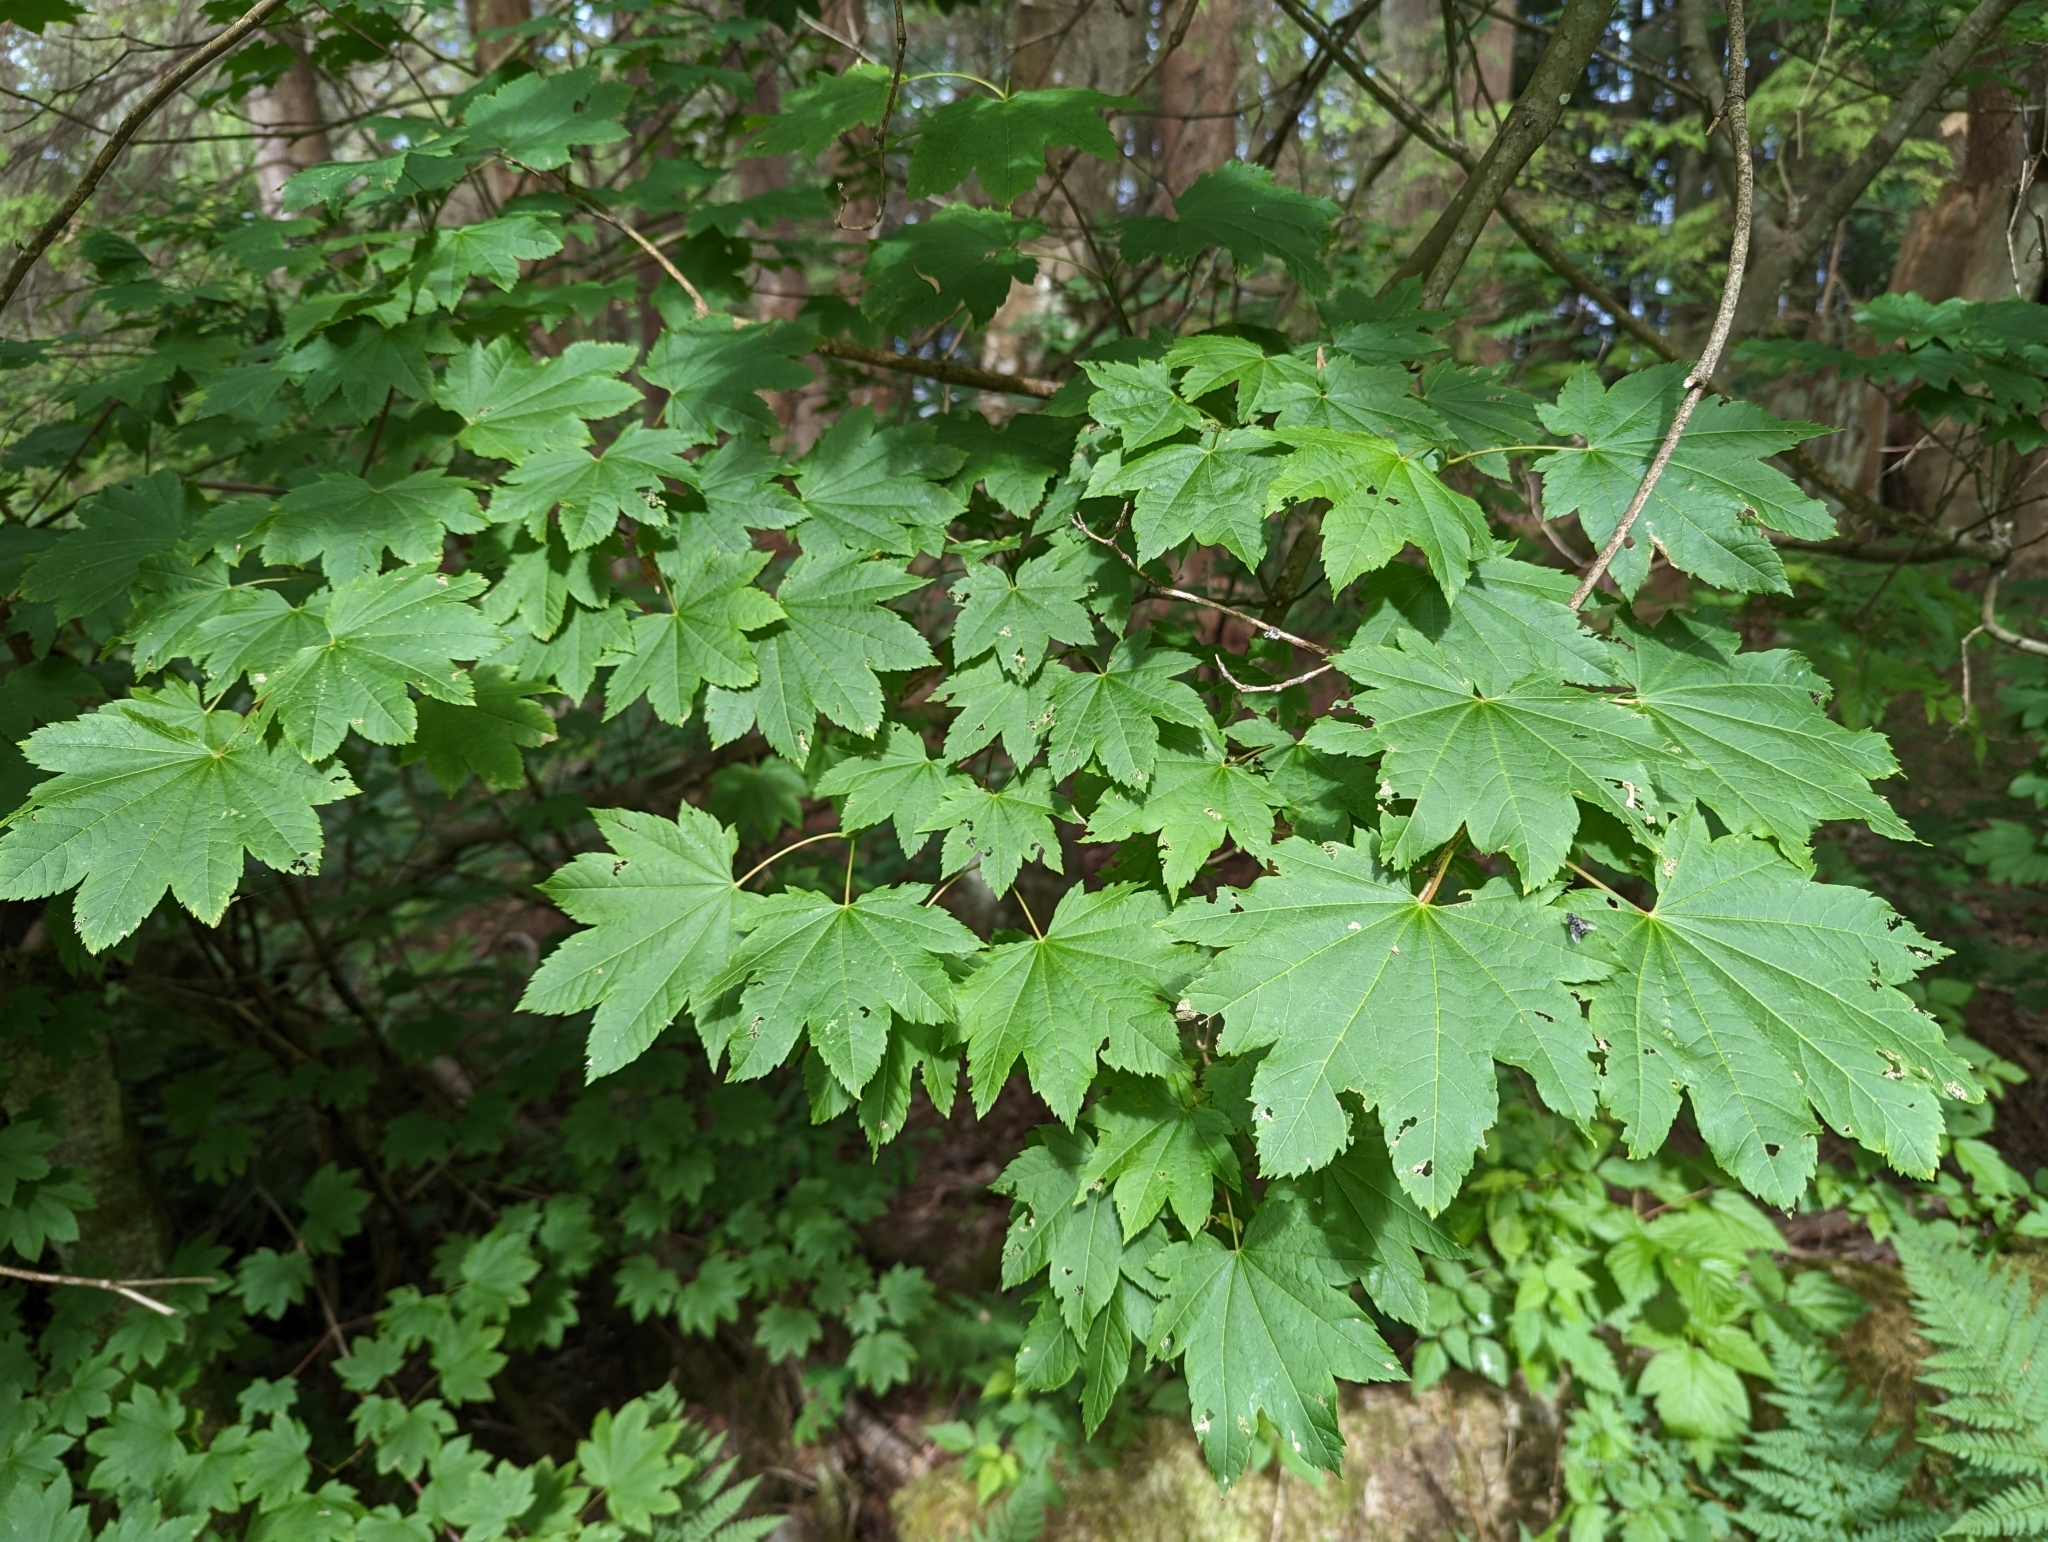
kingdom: Plantae
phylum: Tracheophyta
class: Magnoliopsida
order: Sapindales
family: Sapindaceae
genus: Acer
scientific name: Acer circinatum
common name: Vine maple
